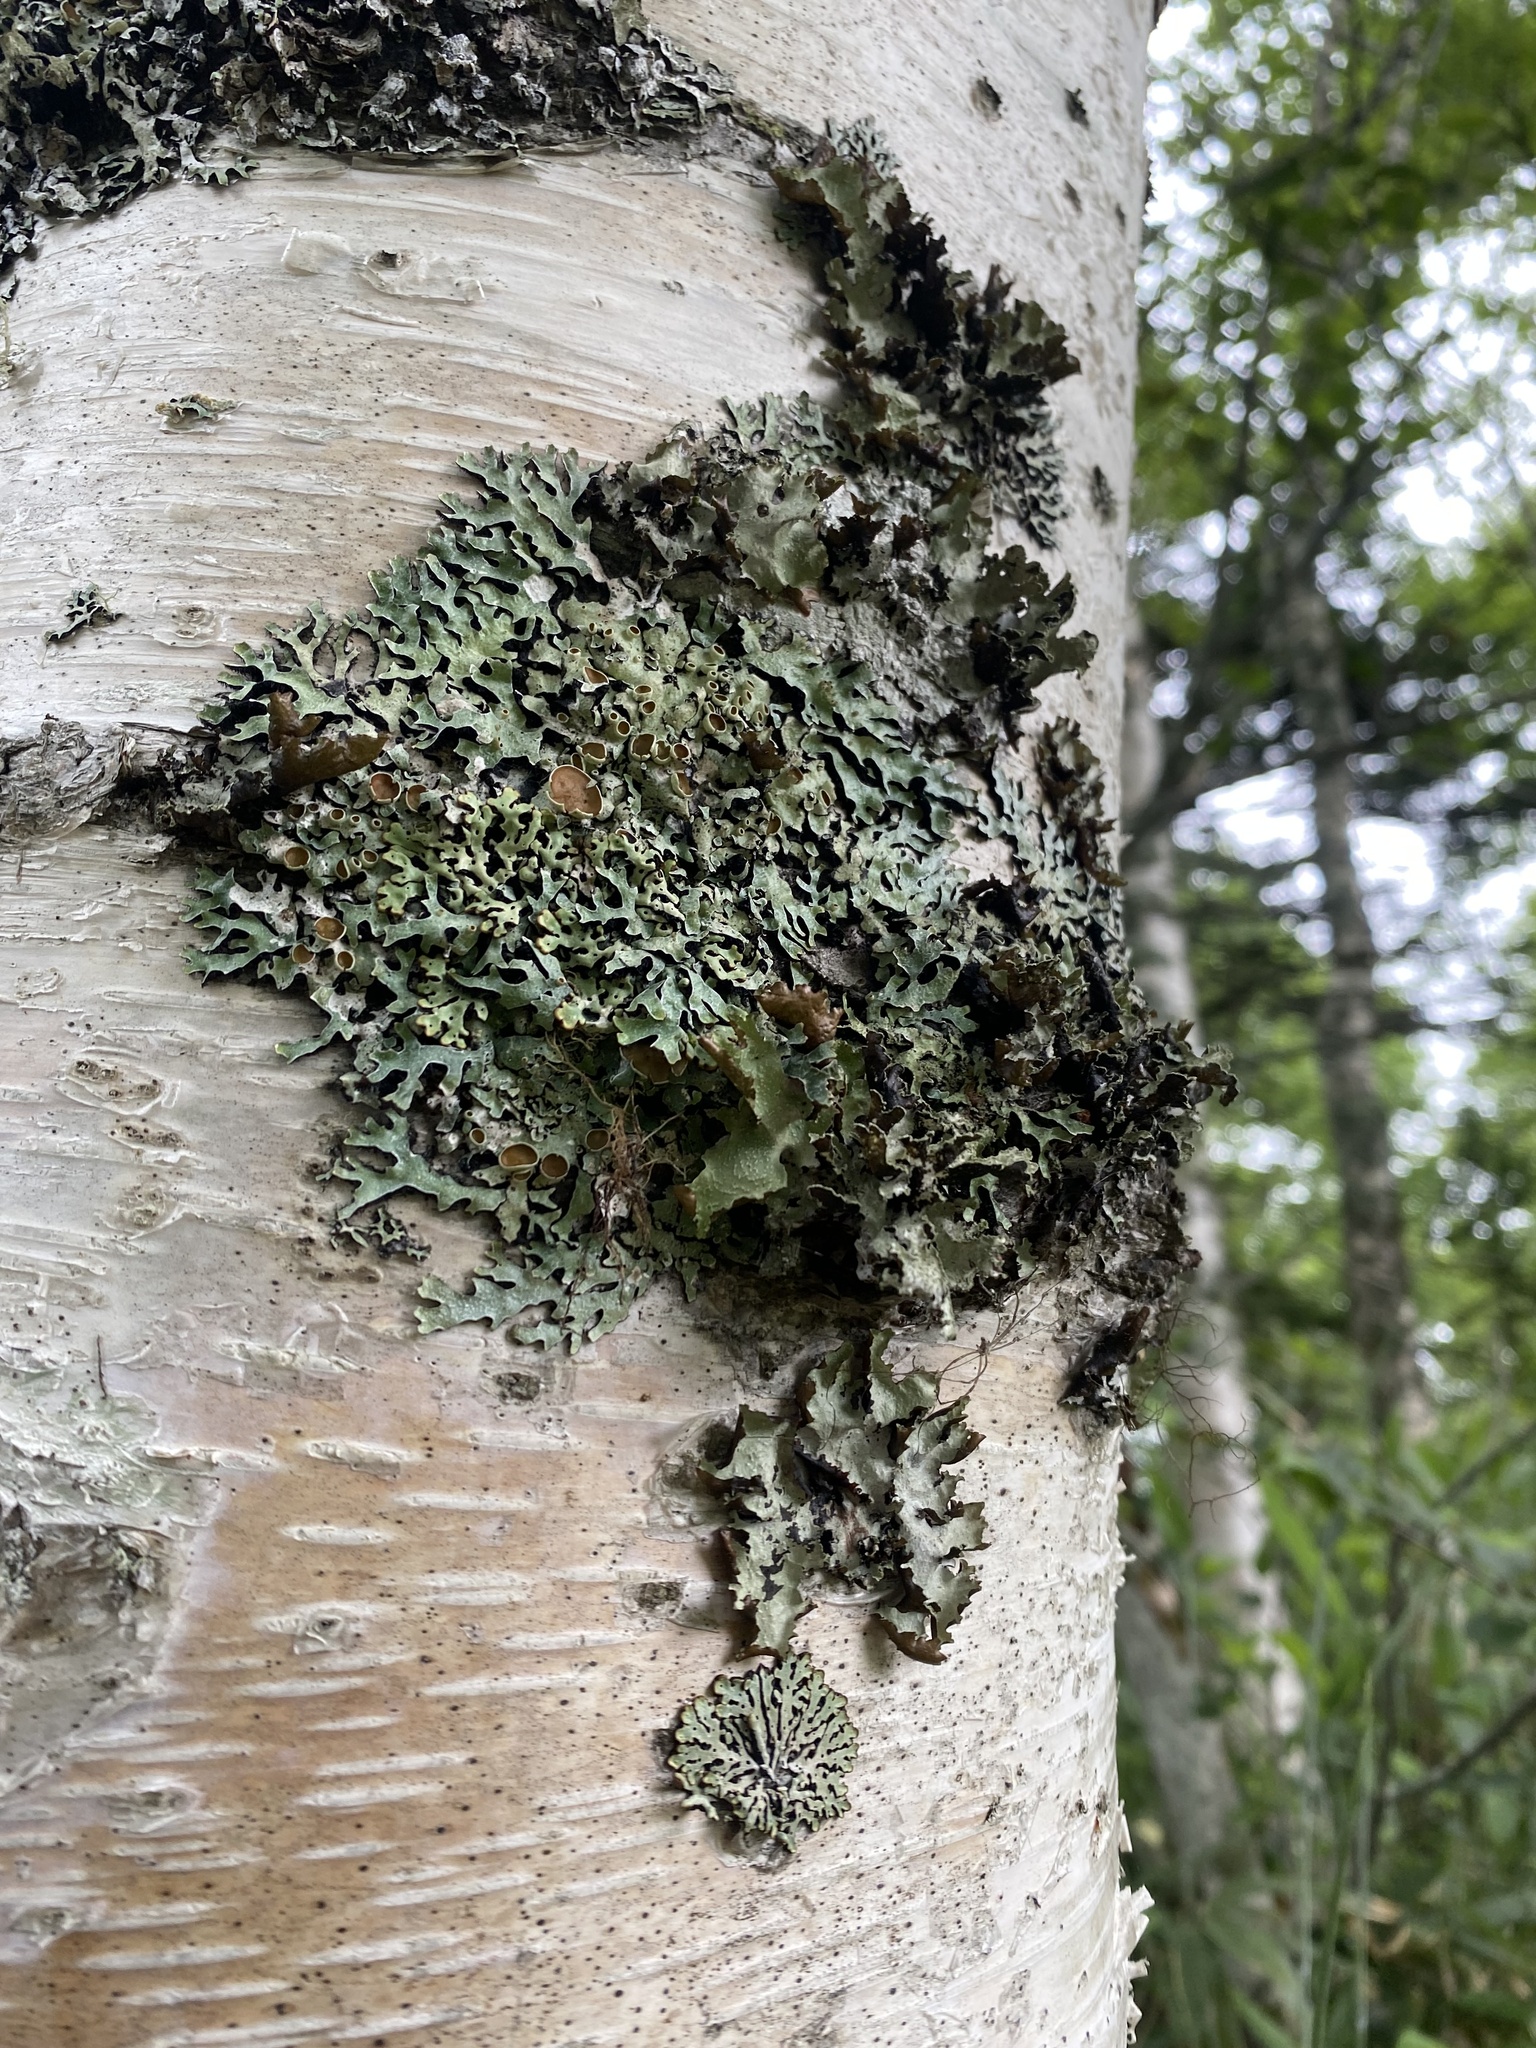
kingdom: Fungi
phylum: Ascomycota
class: Lecanoromycetes
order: Lecanorales
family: Parmeliaceae
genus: Parmelia
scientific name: Parmelia
